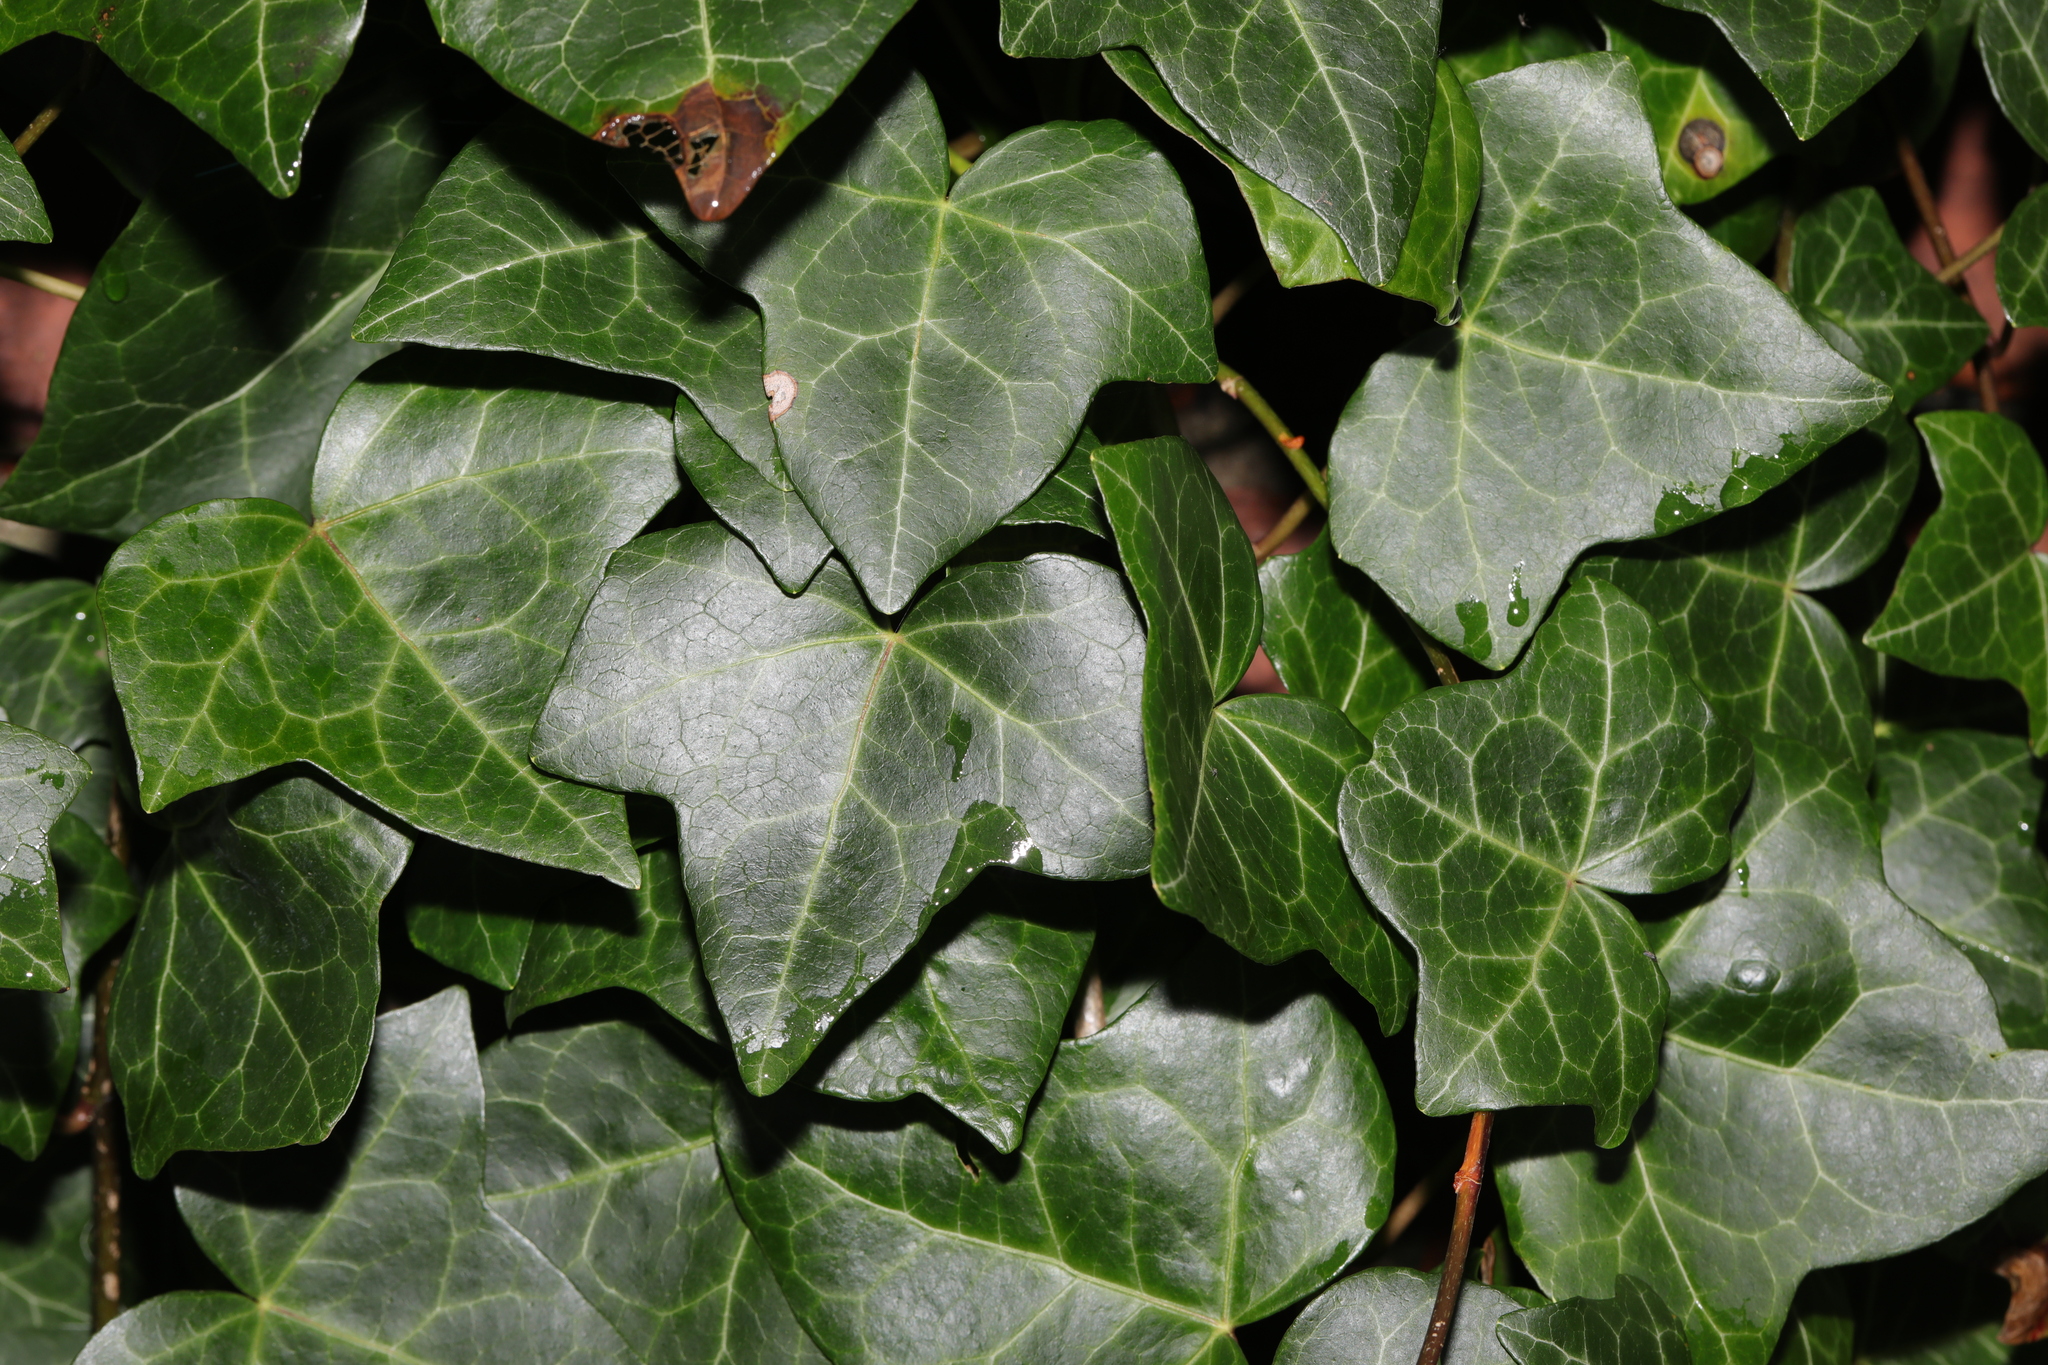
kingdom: Plantae
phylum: Tracheophyta
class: Magnoliopsida
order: Apiales
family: Araliaceae
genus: Hedera
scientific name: Hedera helix
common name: Ivy
